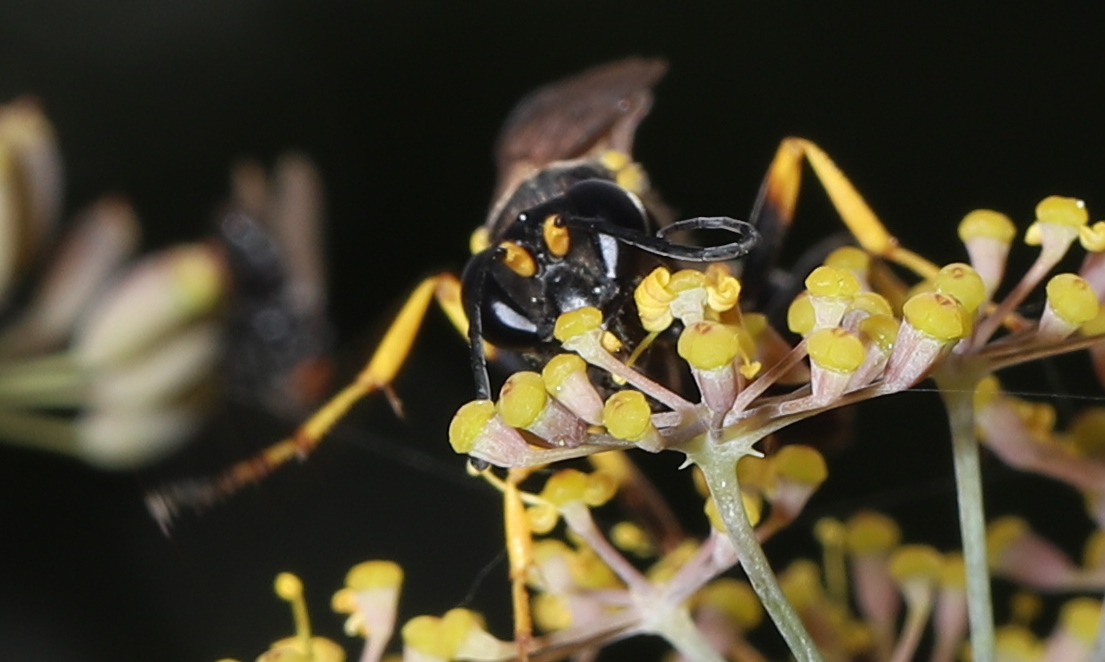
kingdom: Animalia
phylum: Arthropoda
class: Insecta
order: Hymenoptera
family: Sphecidae
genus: Sceliphron
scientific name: Sceliphron caementarium
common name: Mud dauber
